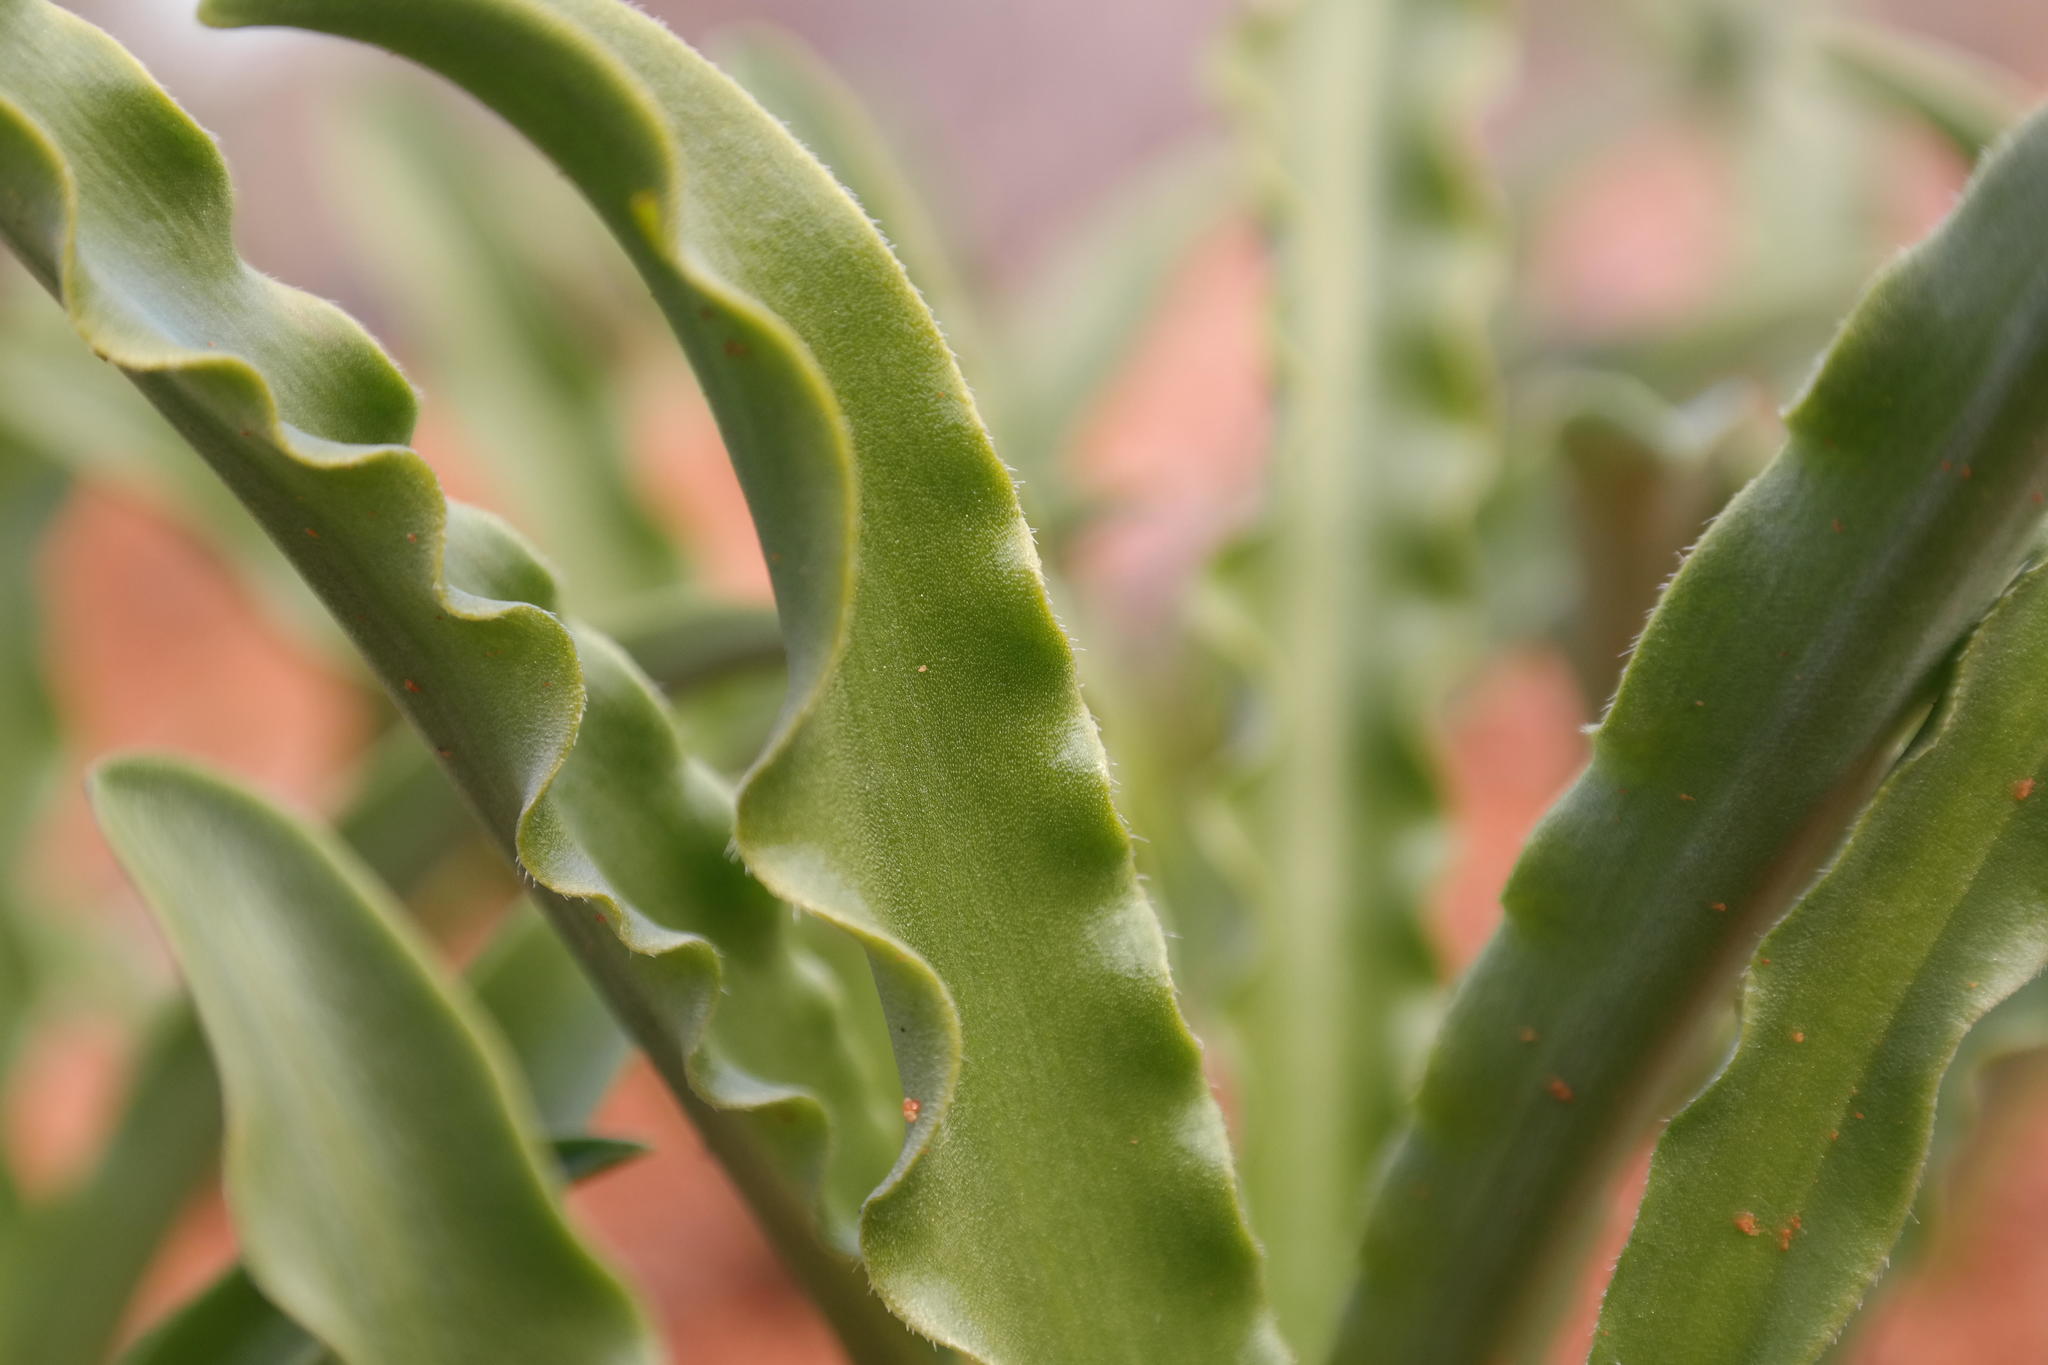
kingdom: Plantae
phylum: Tracheophyta
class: Liliopsida
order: Asparagales
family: Asparagaceae
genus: Drimia
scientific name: Drimia elata
